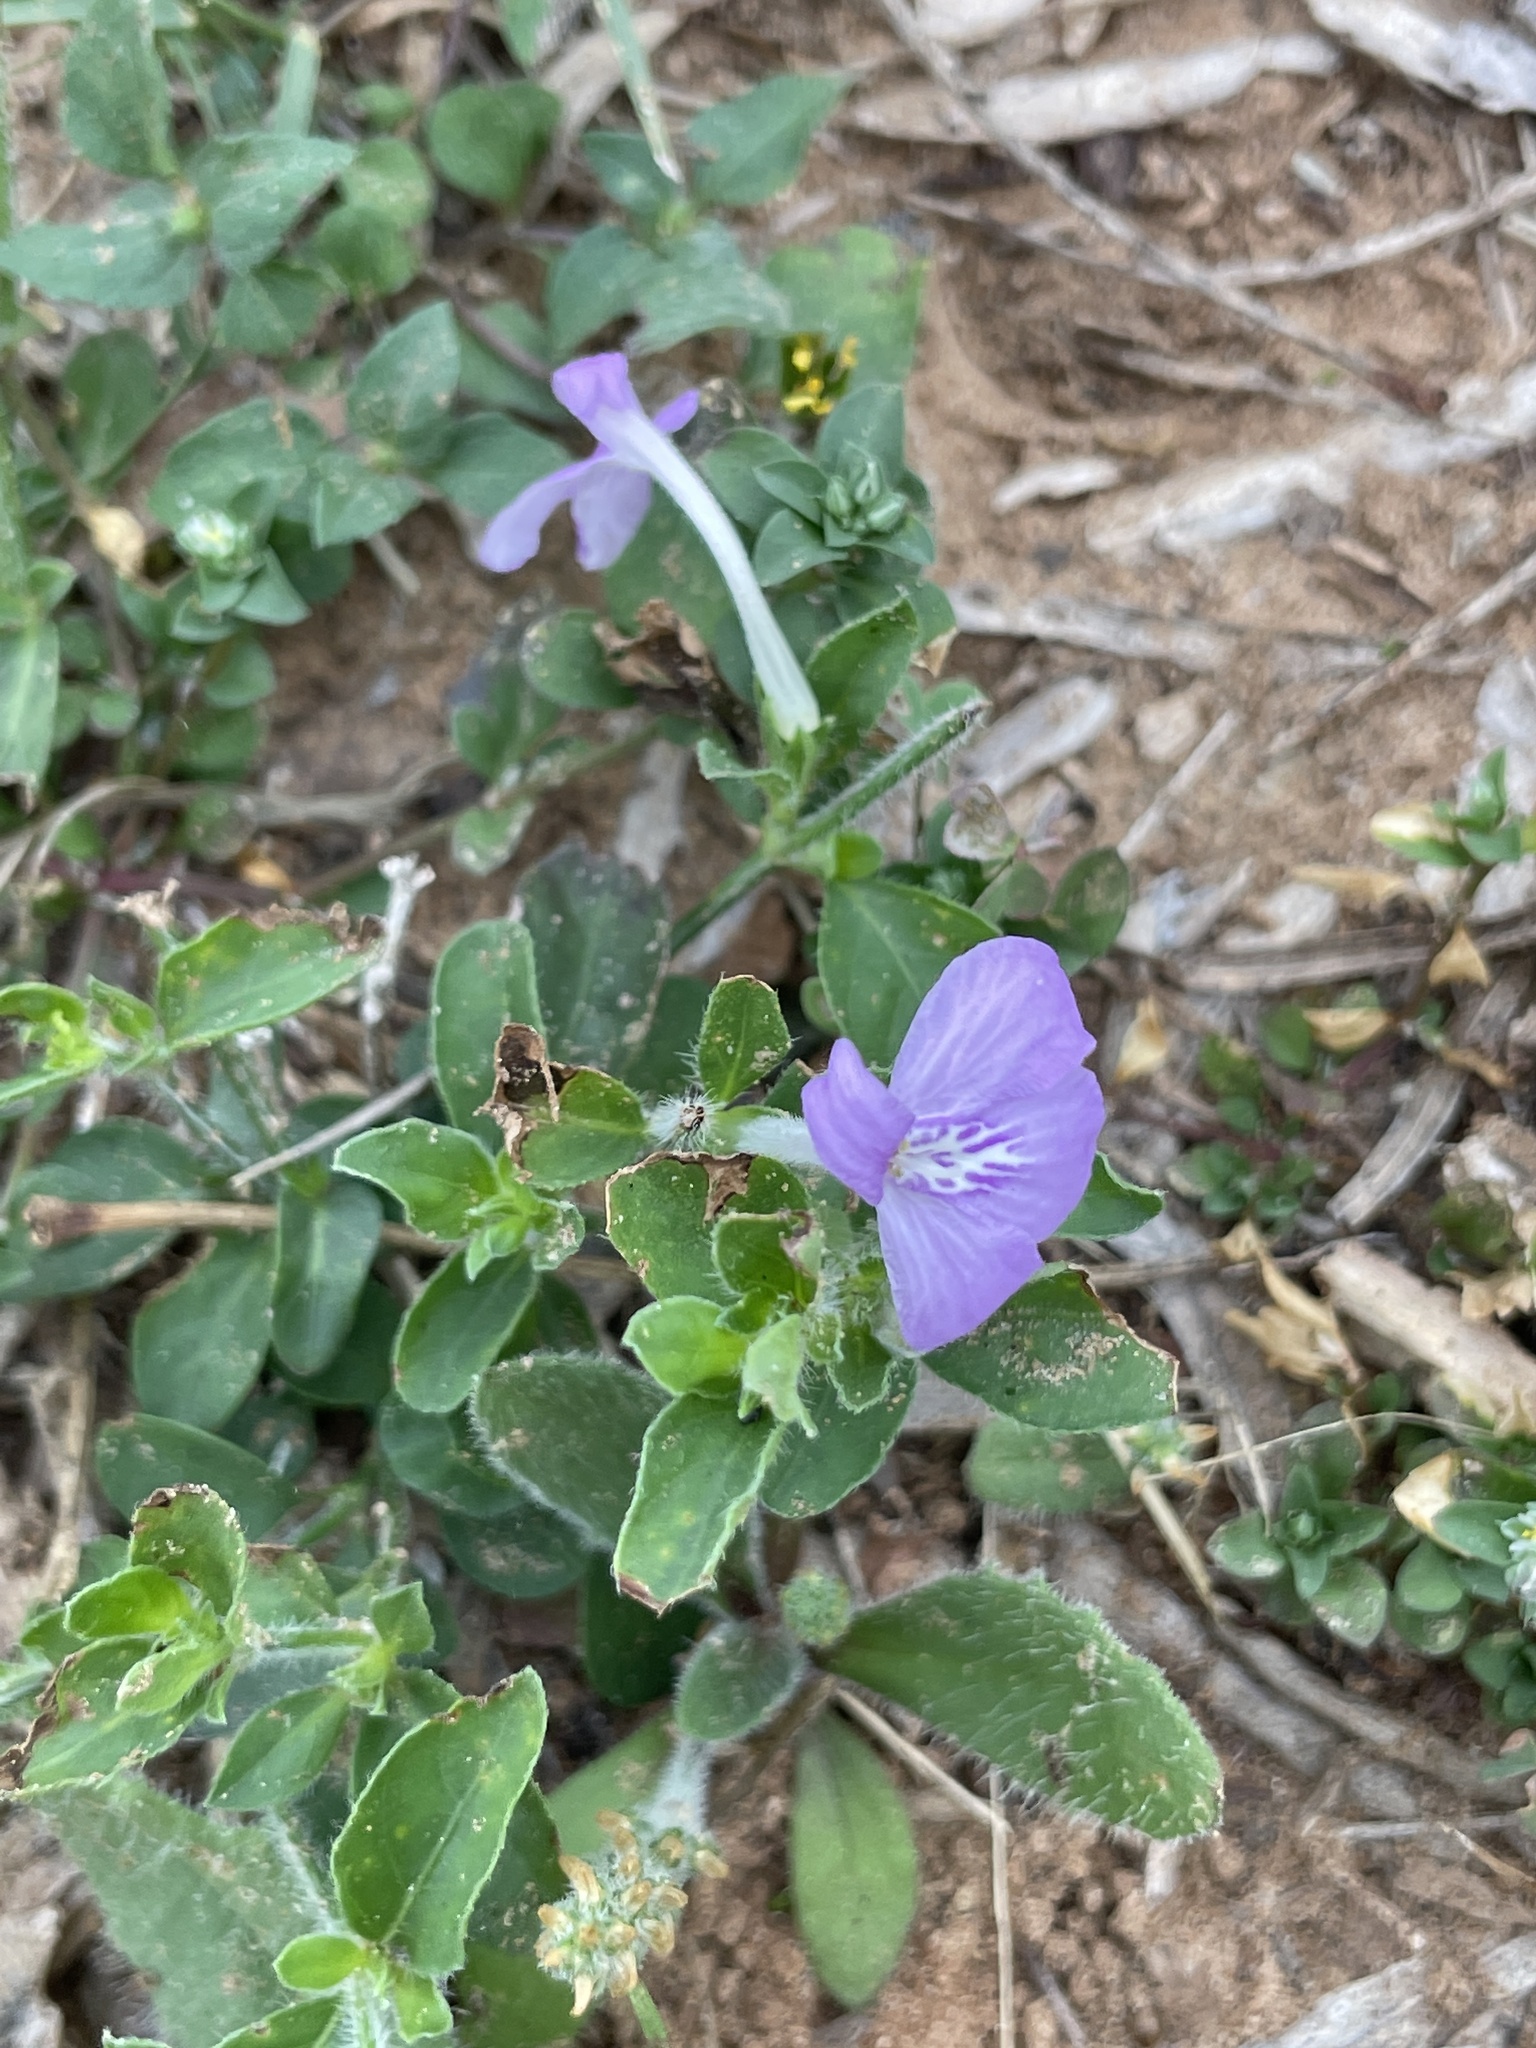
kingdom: Plantae
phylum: Tracheophyta
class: Magnoliopsida
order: Lamiales
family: Acanthaceae
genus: Justicia
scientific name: Justicia pilosella
